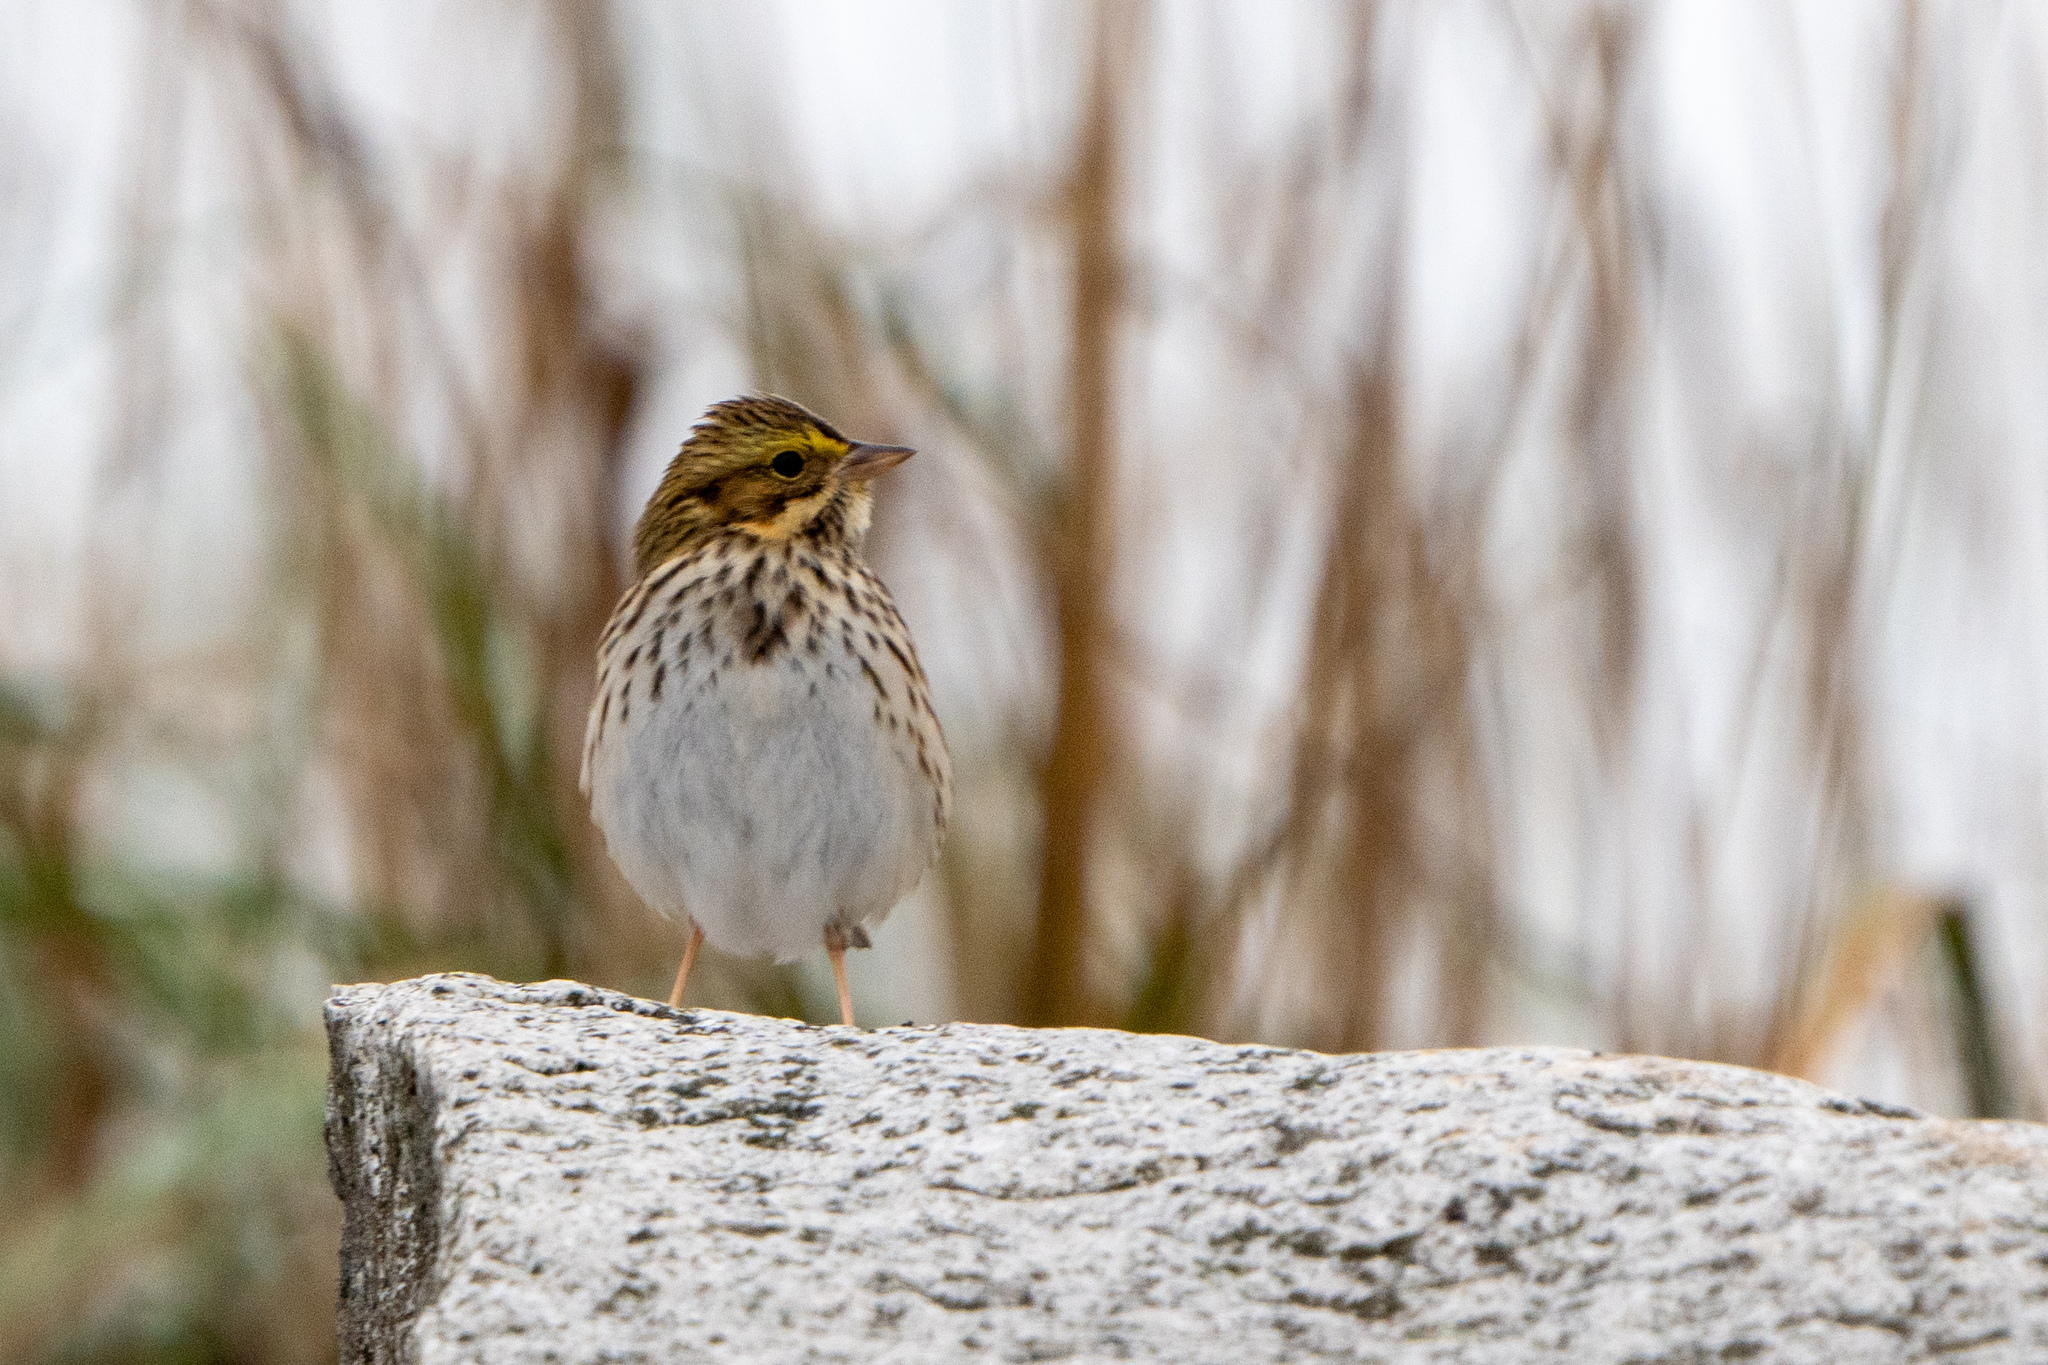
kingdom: Animalia
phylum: Chordata
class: Aves
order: Passeriformes
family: Passerellidae
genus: Passerculus
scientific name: Passerculus sandwichensis
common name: Savannah sparrow
